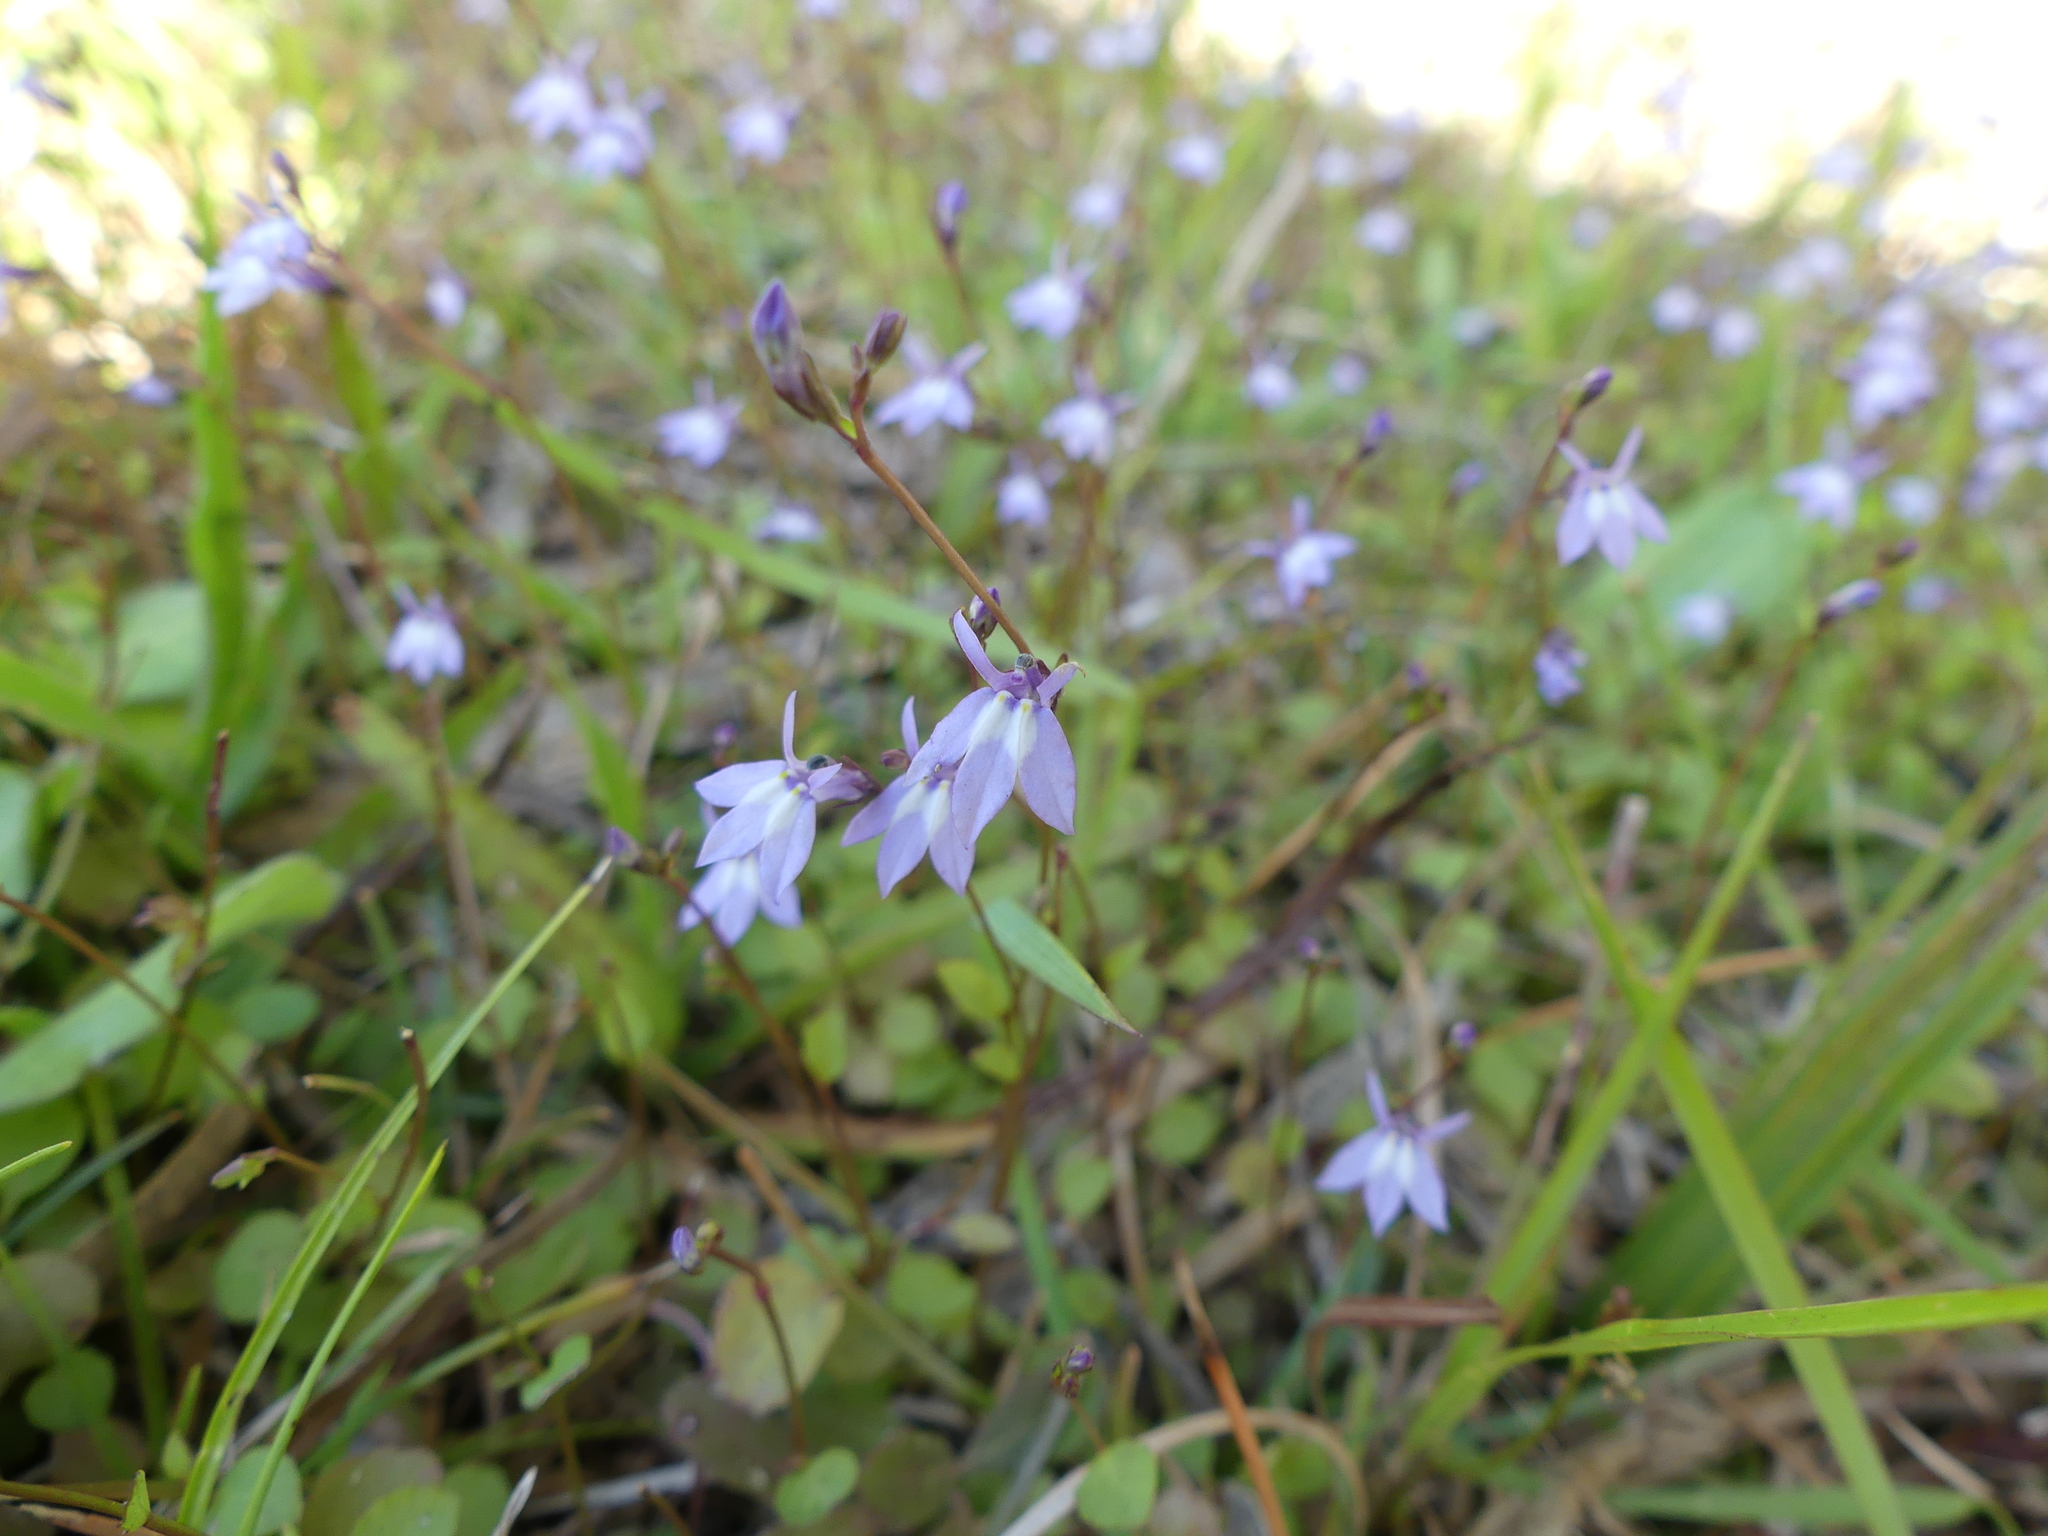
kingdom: Plantae
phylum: Tracheophyta
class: Magnoliopsida
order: Asterales
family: Campanulaceae
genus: Lobelia
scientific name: Lobelia feayana
